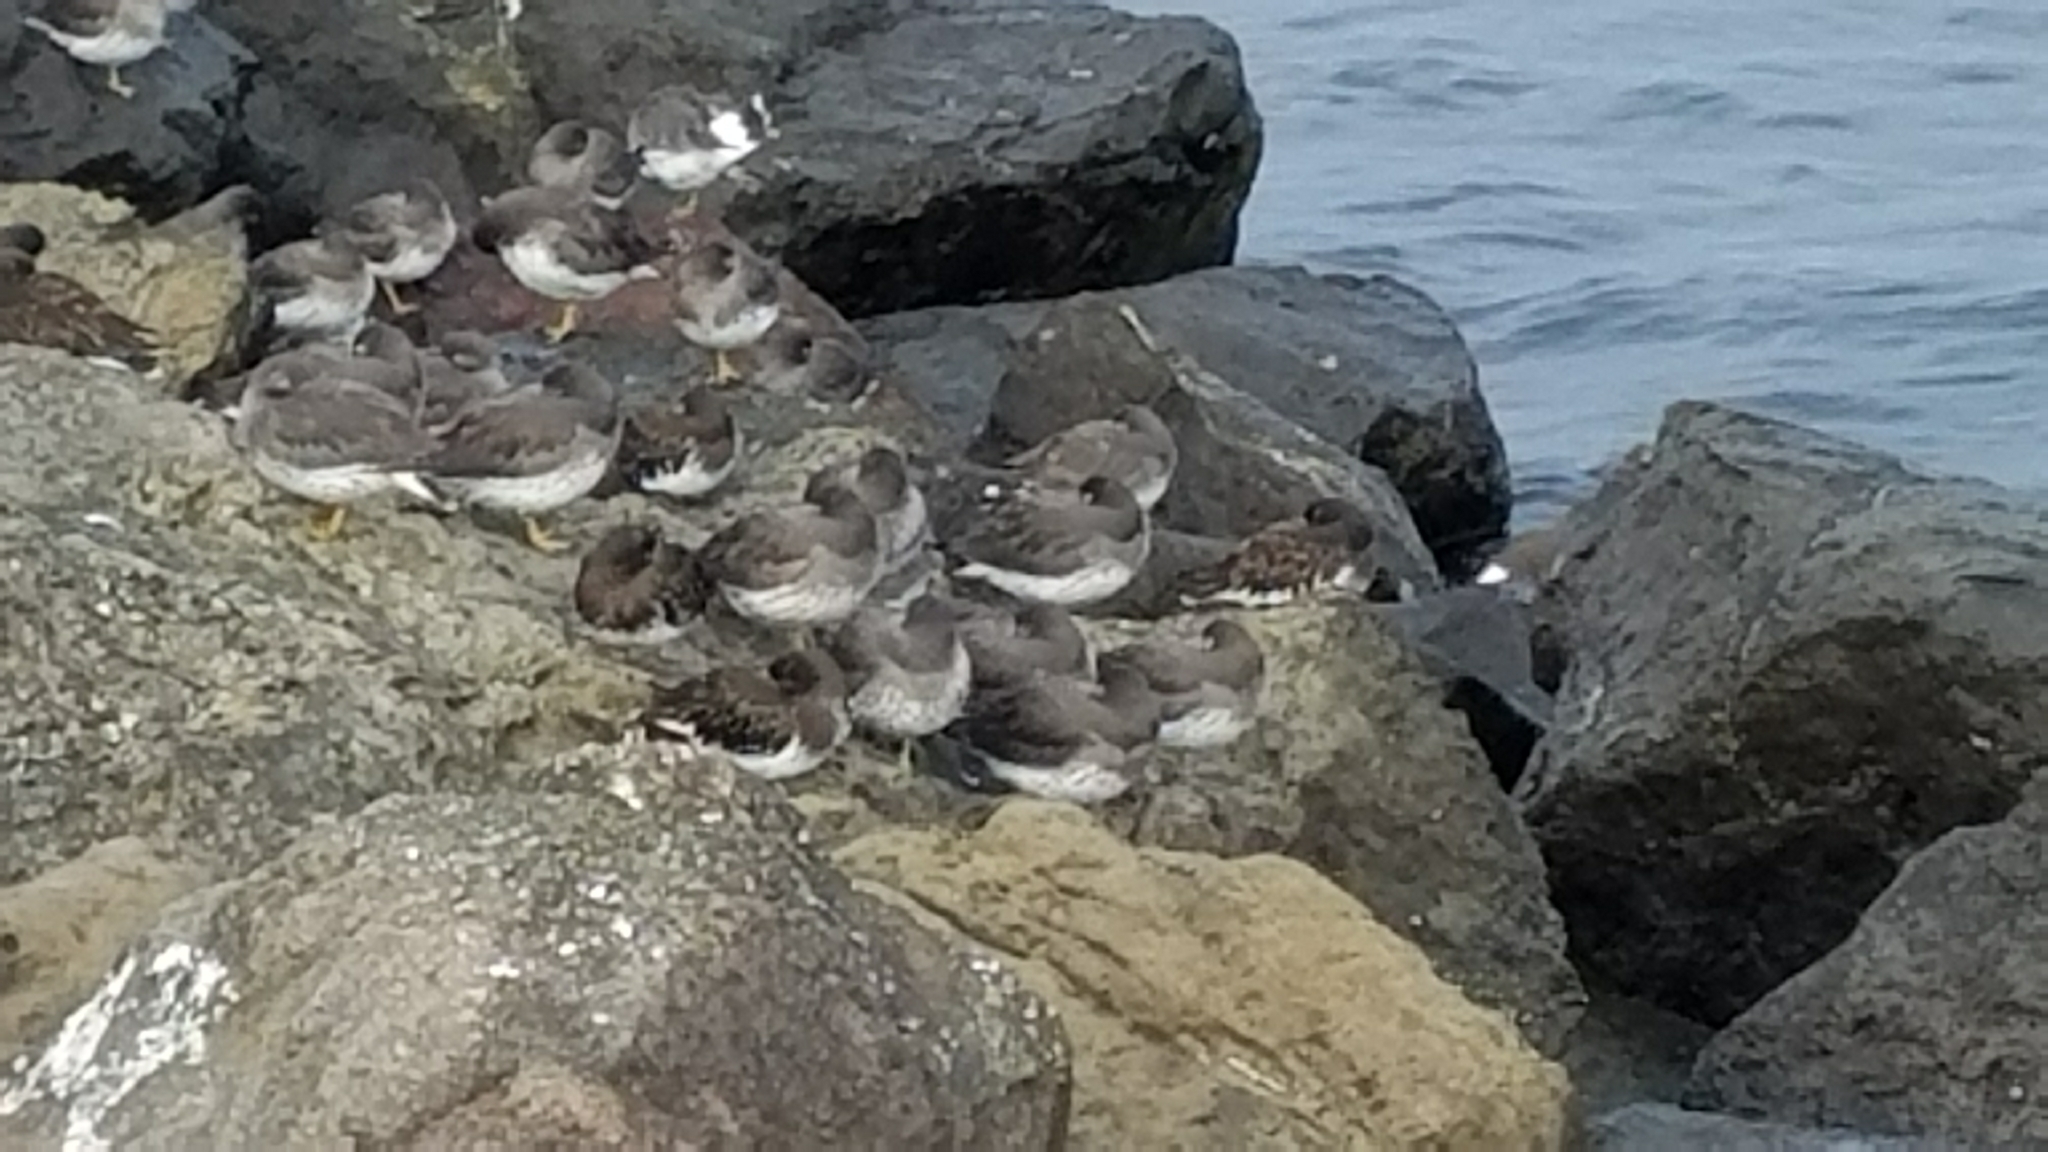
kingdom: Animalia
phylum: Chordata
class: Aves
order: Charadriiformes
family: Scolopacidae
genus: Arenaria
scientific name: Arenaria melanocephala
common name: Black turnstone
